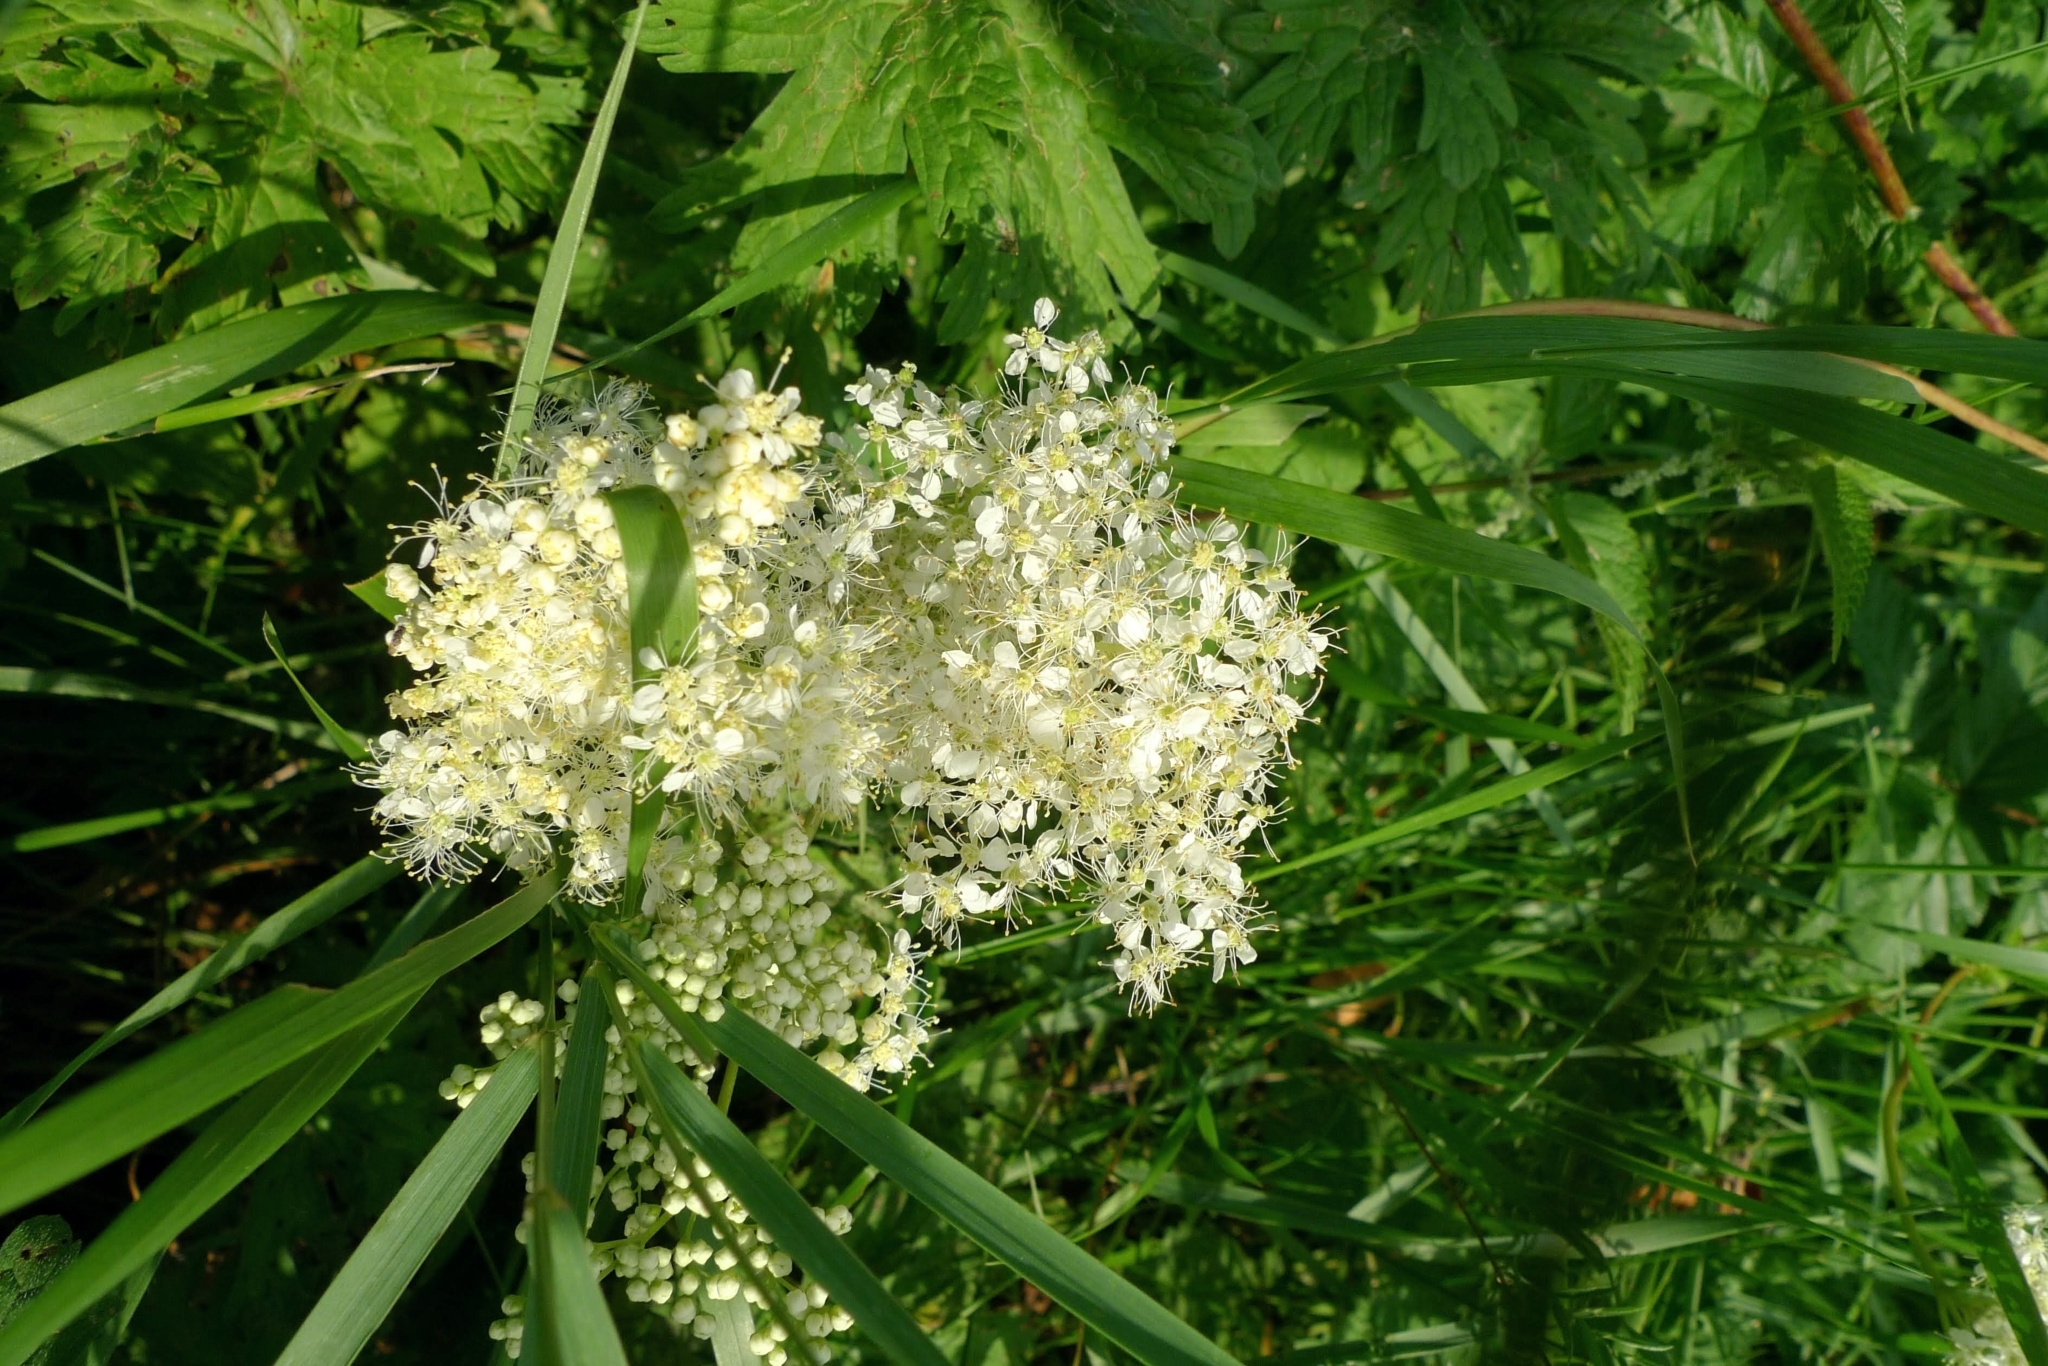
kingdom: Plantae
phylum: Tracheophyta
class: Magnoliopsida
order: Rosales
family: Rosaceae
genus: Filipendula
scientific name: Filipendula ulmaria
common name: Meadowsweet
